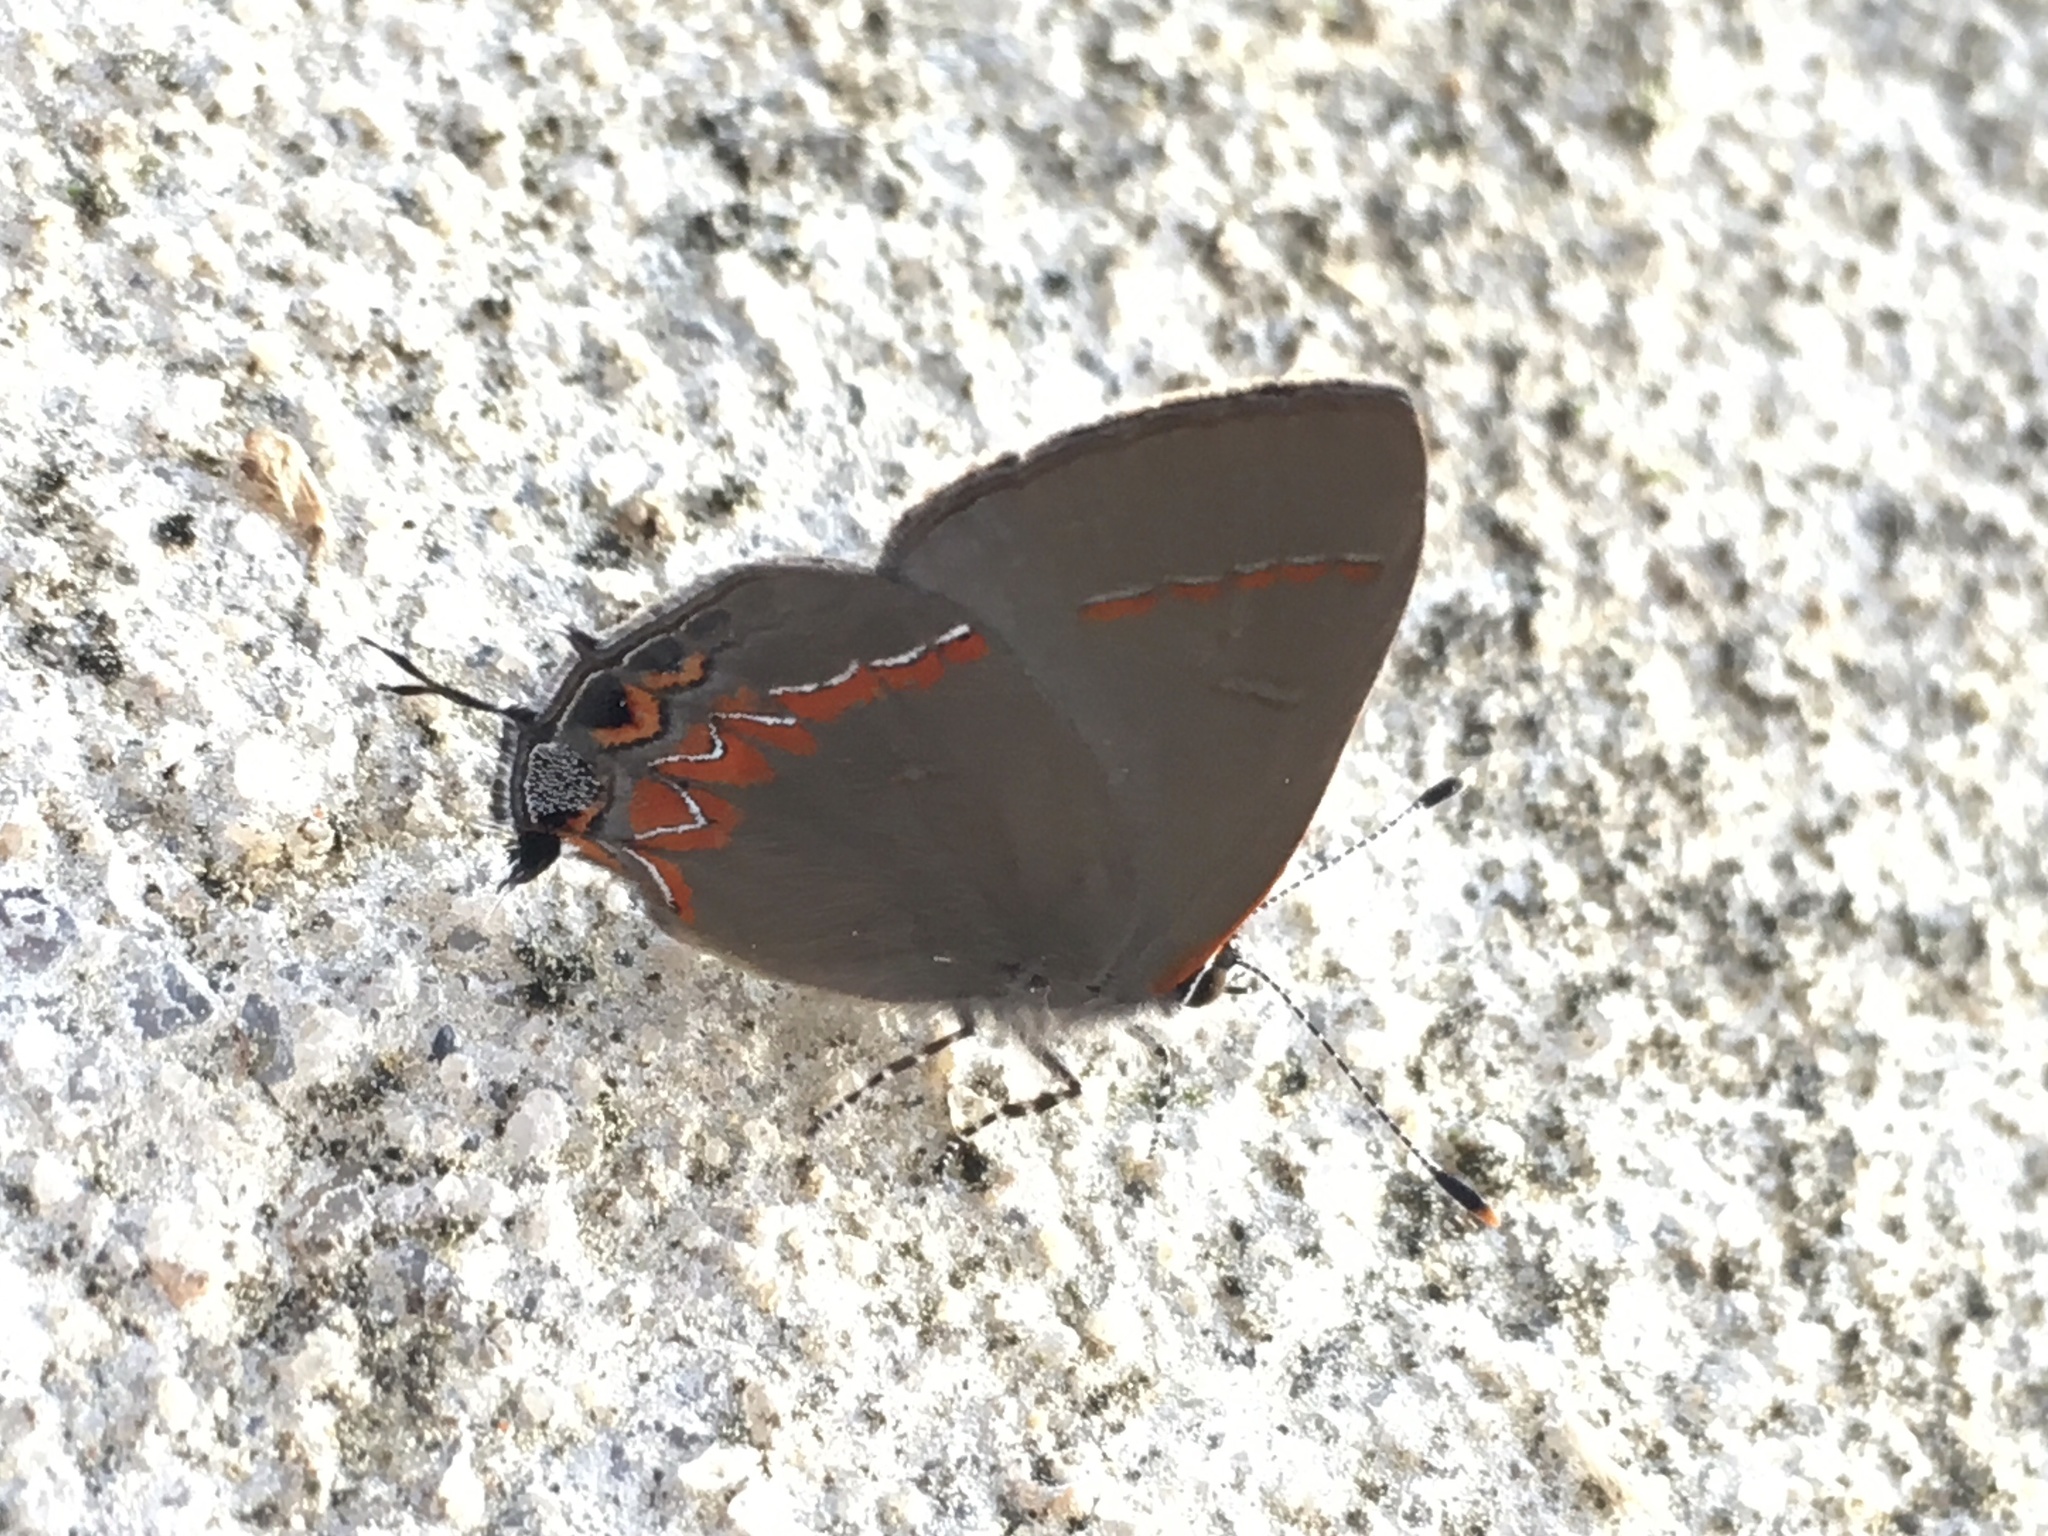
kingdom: Animalia
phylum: Arthropoda
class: Insecta
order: Lepidoptera
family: Lycaenidae
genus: Calycopis
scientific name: Calycopis cecrops
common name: Red-banded hairstreak
